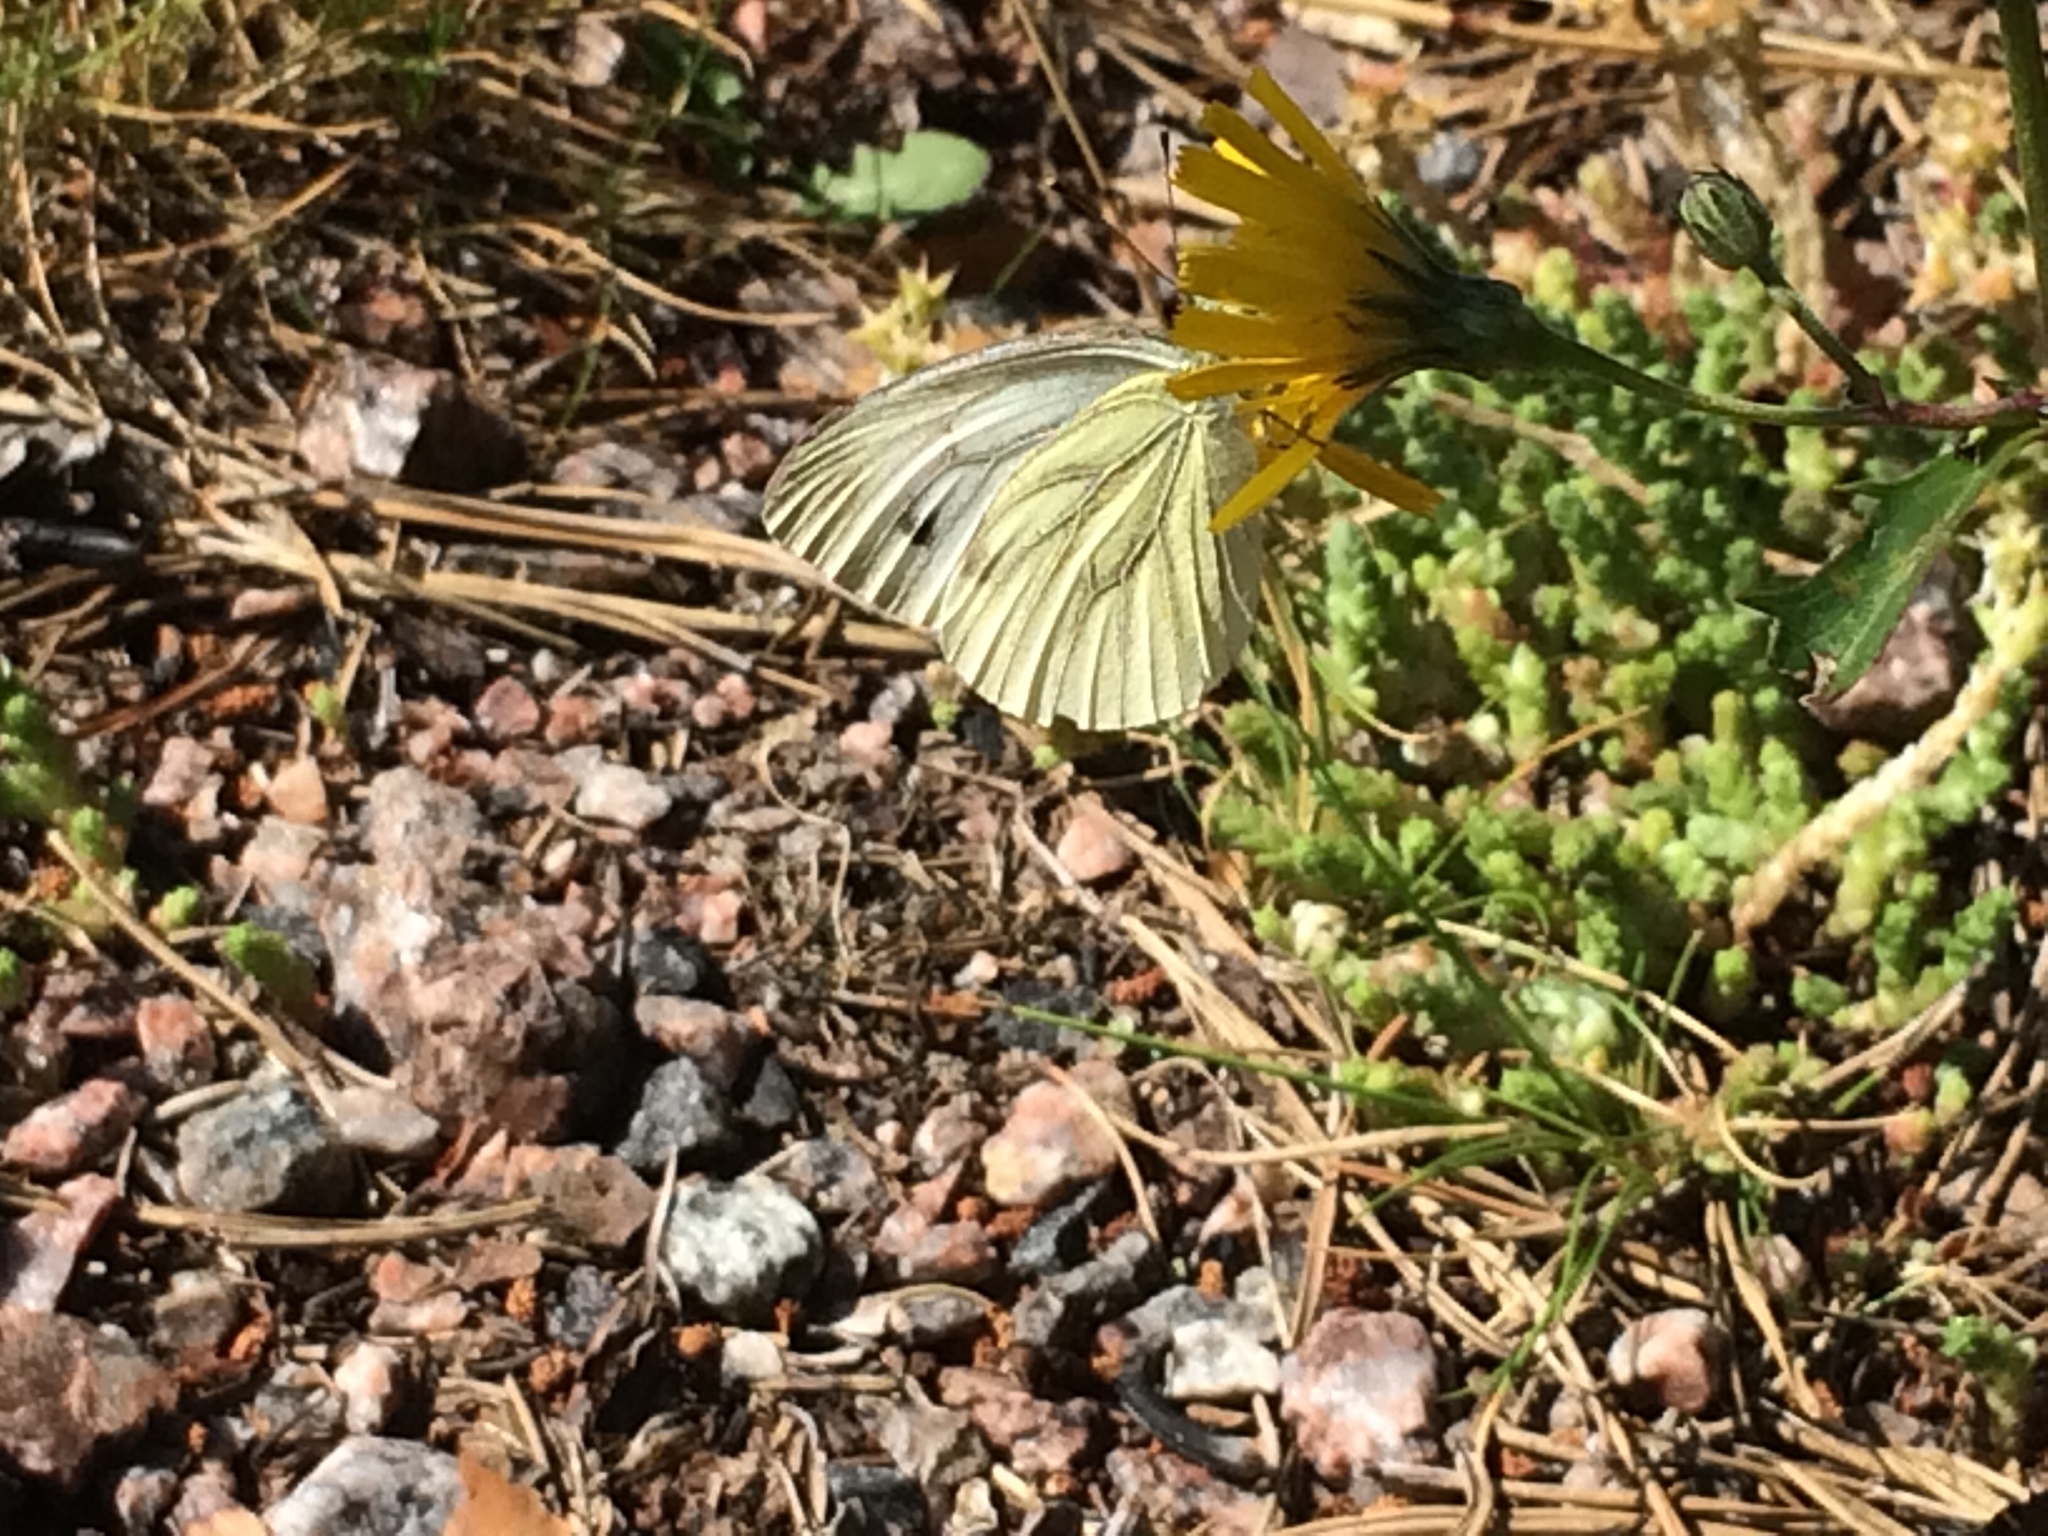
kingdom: Animalia
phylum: Arthropoda
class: Insecta
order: Lepidoptera
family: Pieridae
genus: Pieris
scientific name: Pieris napi
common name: Green-veined white
